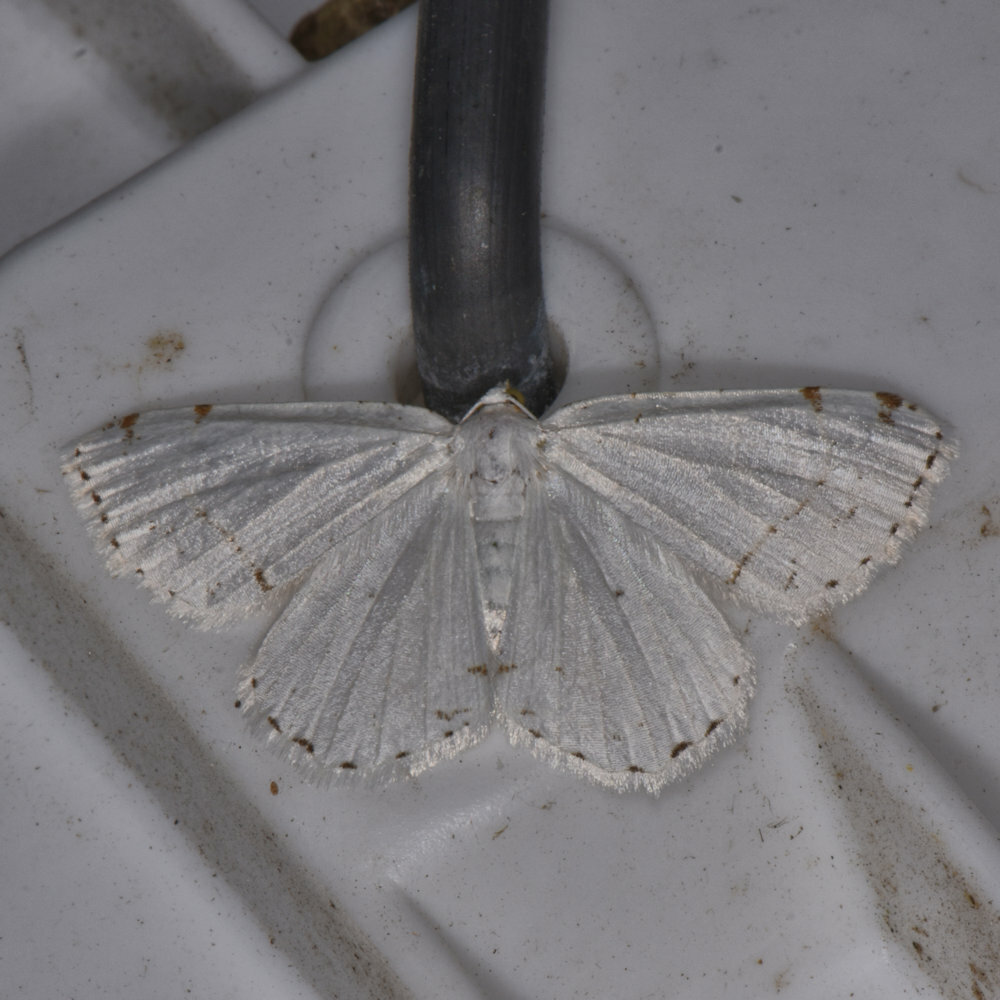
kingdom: Animalia
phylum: Arthropoda
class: Insecta
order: Lepidoptera
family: Geometridae
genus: Macaria
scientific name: Macaria pustularia
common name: Lesser maple spanworm moth
